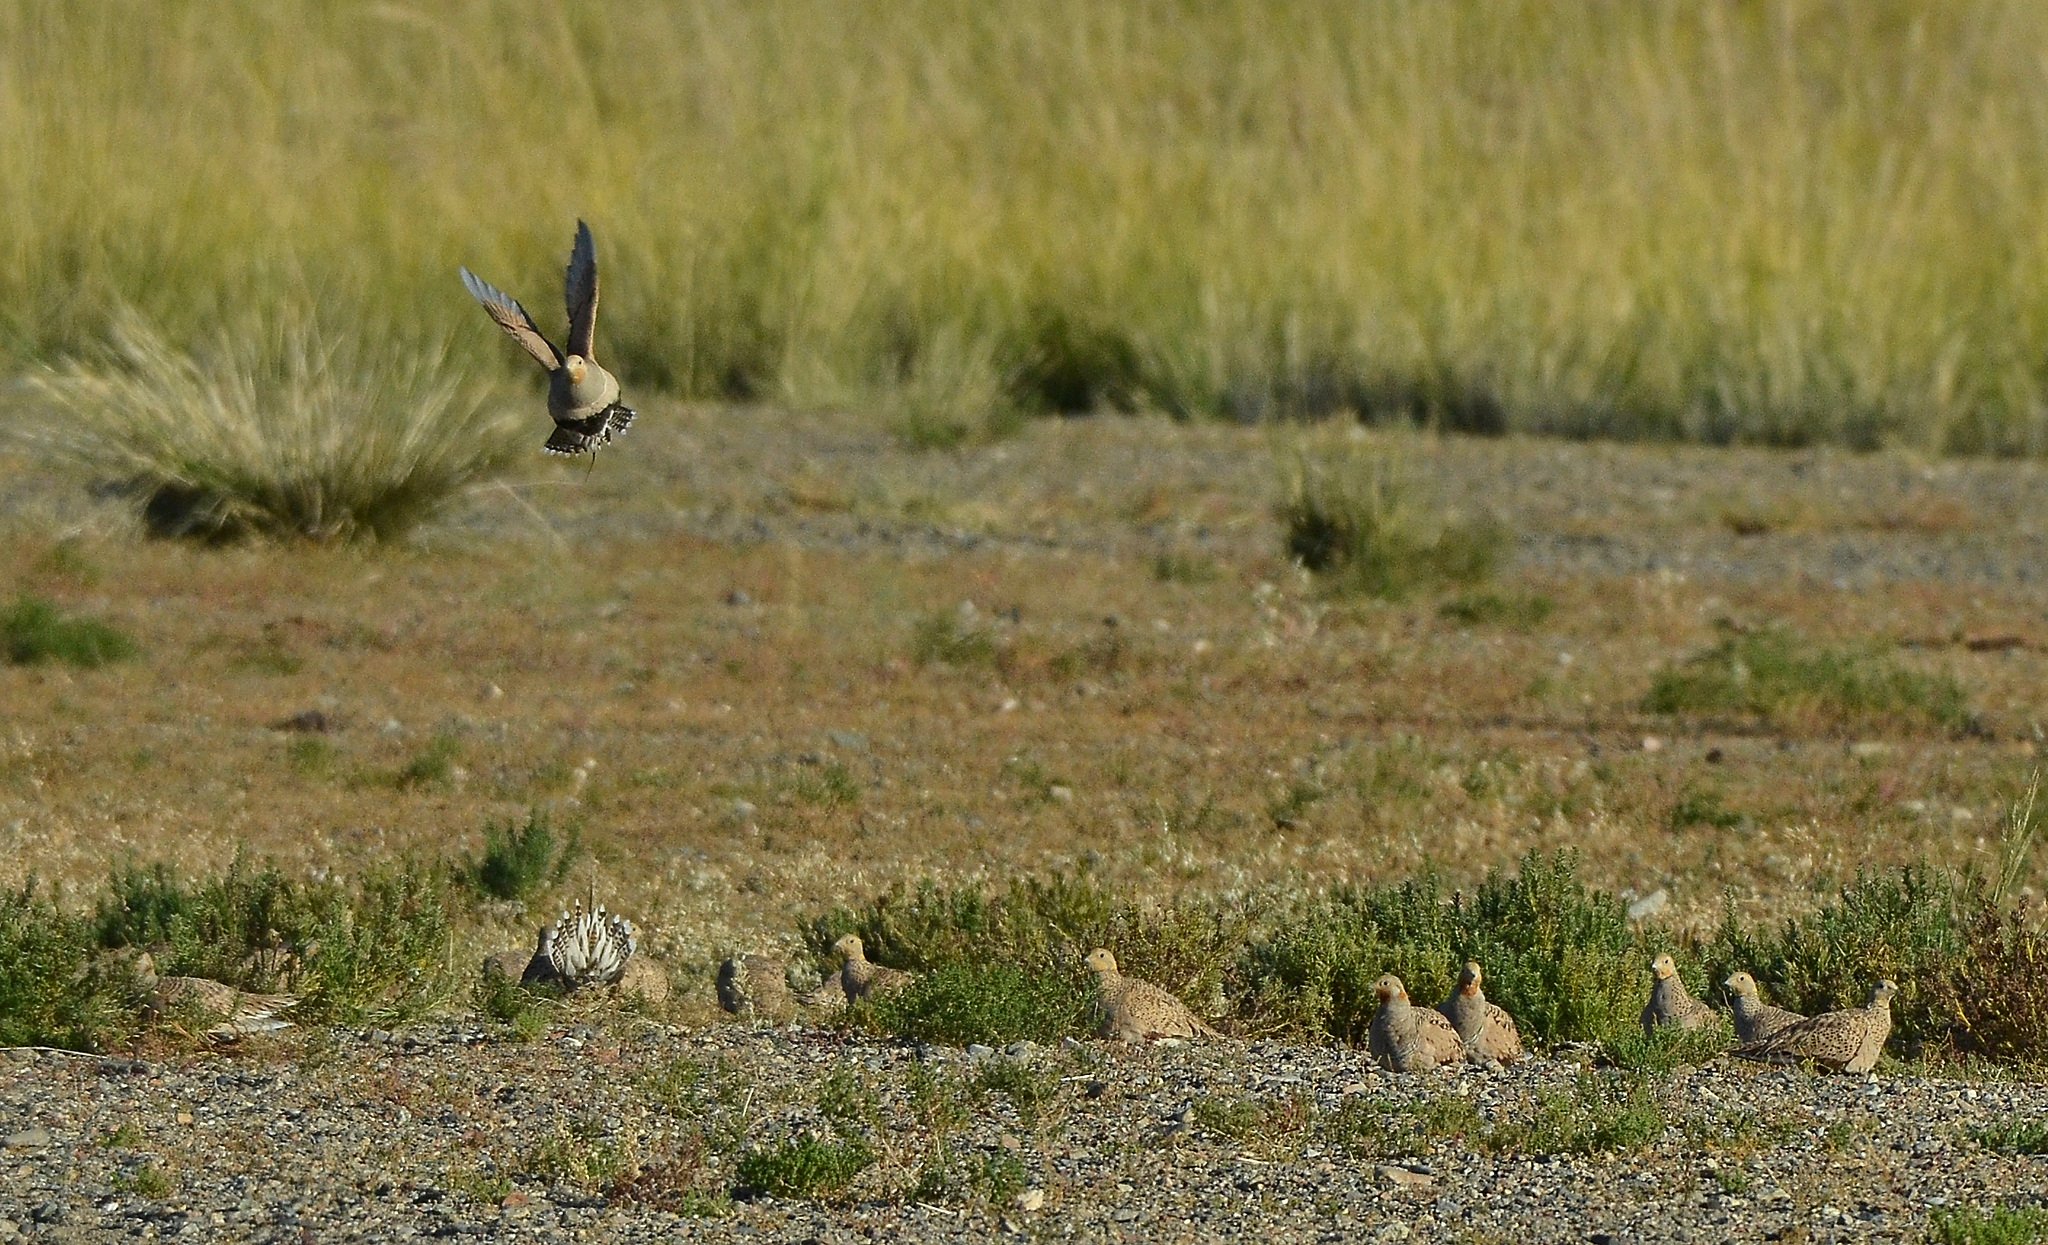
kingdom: Animalia
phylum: Chordata
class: Aves
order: Pteroclidiformes
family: Pteroclididae
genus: Syrrhaptes
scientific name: Syrrhaptes paradoxus
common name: Pallas's sandgrouse
